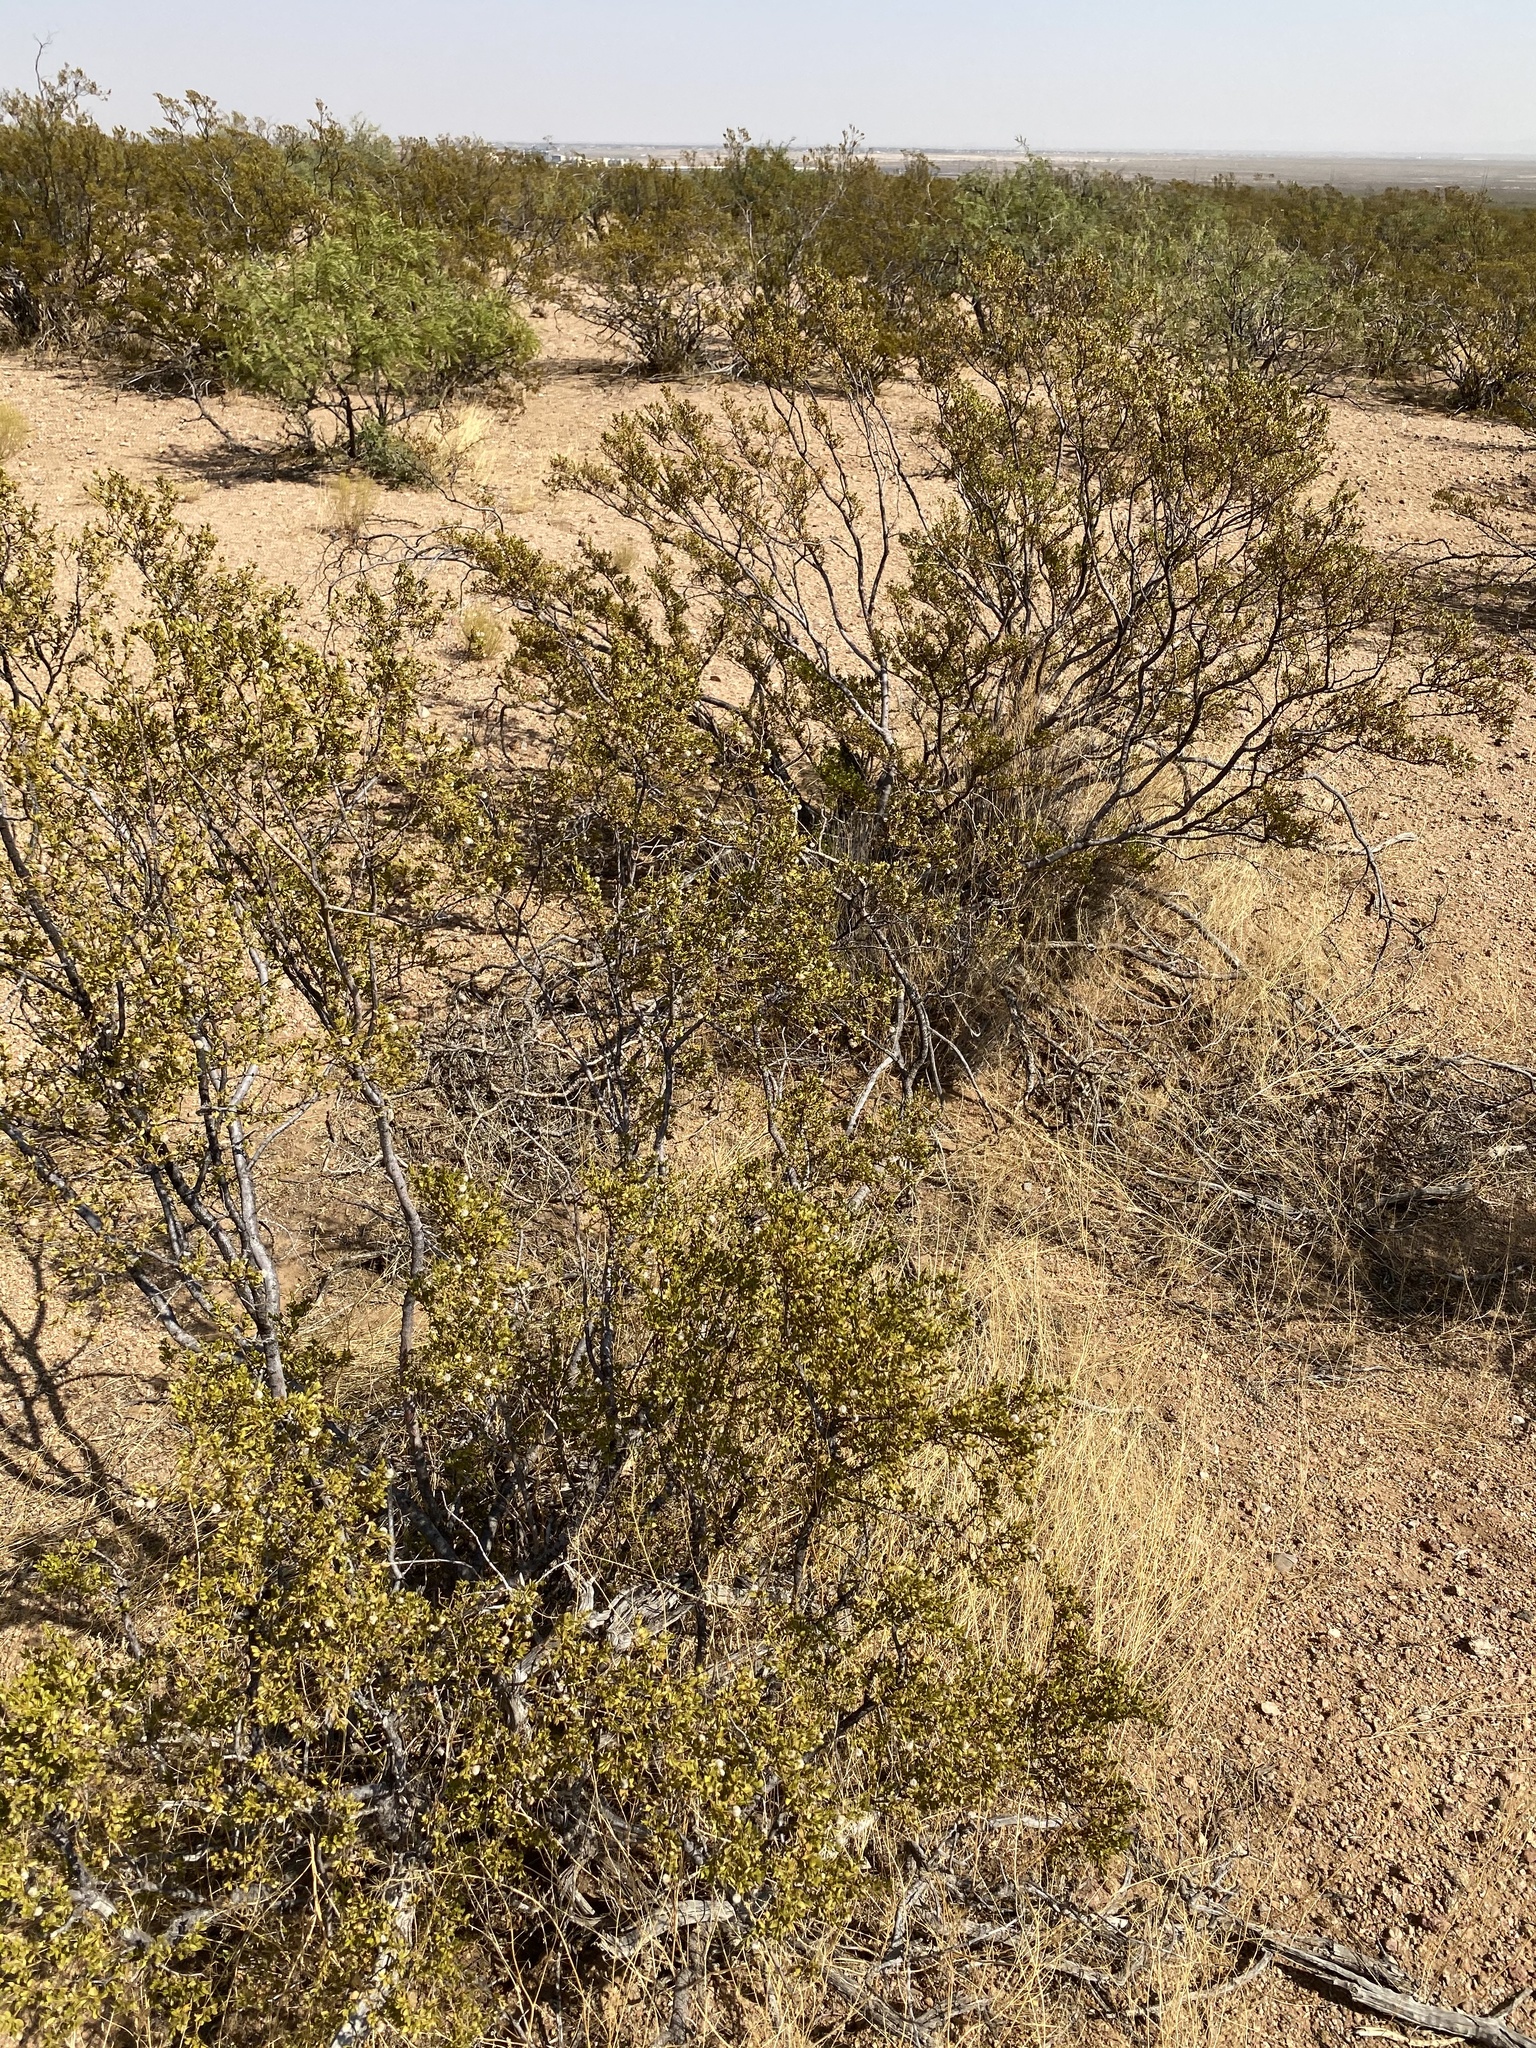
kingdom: Plantae
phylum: Tracheophyta
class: Magnoliopsida
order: Zygophyllales
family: Zygophyllaceae
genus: Larrea
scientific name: Larrea tridentata
